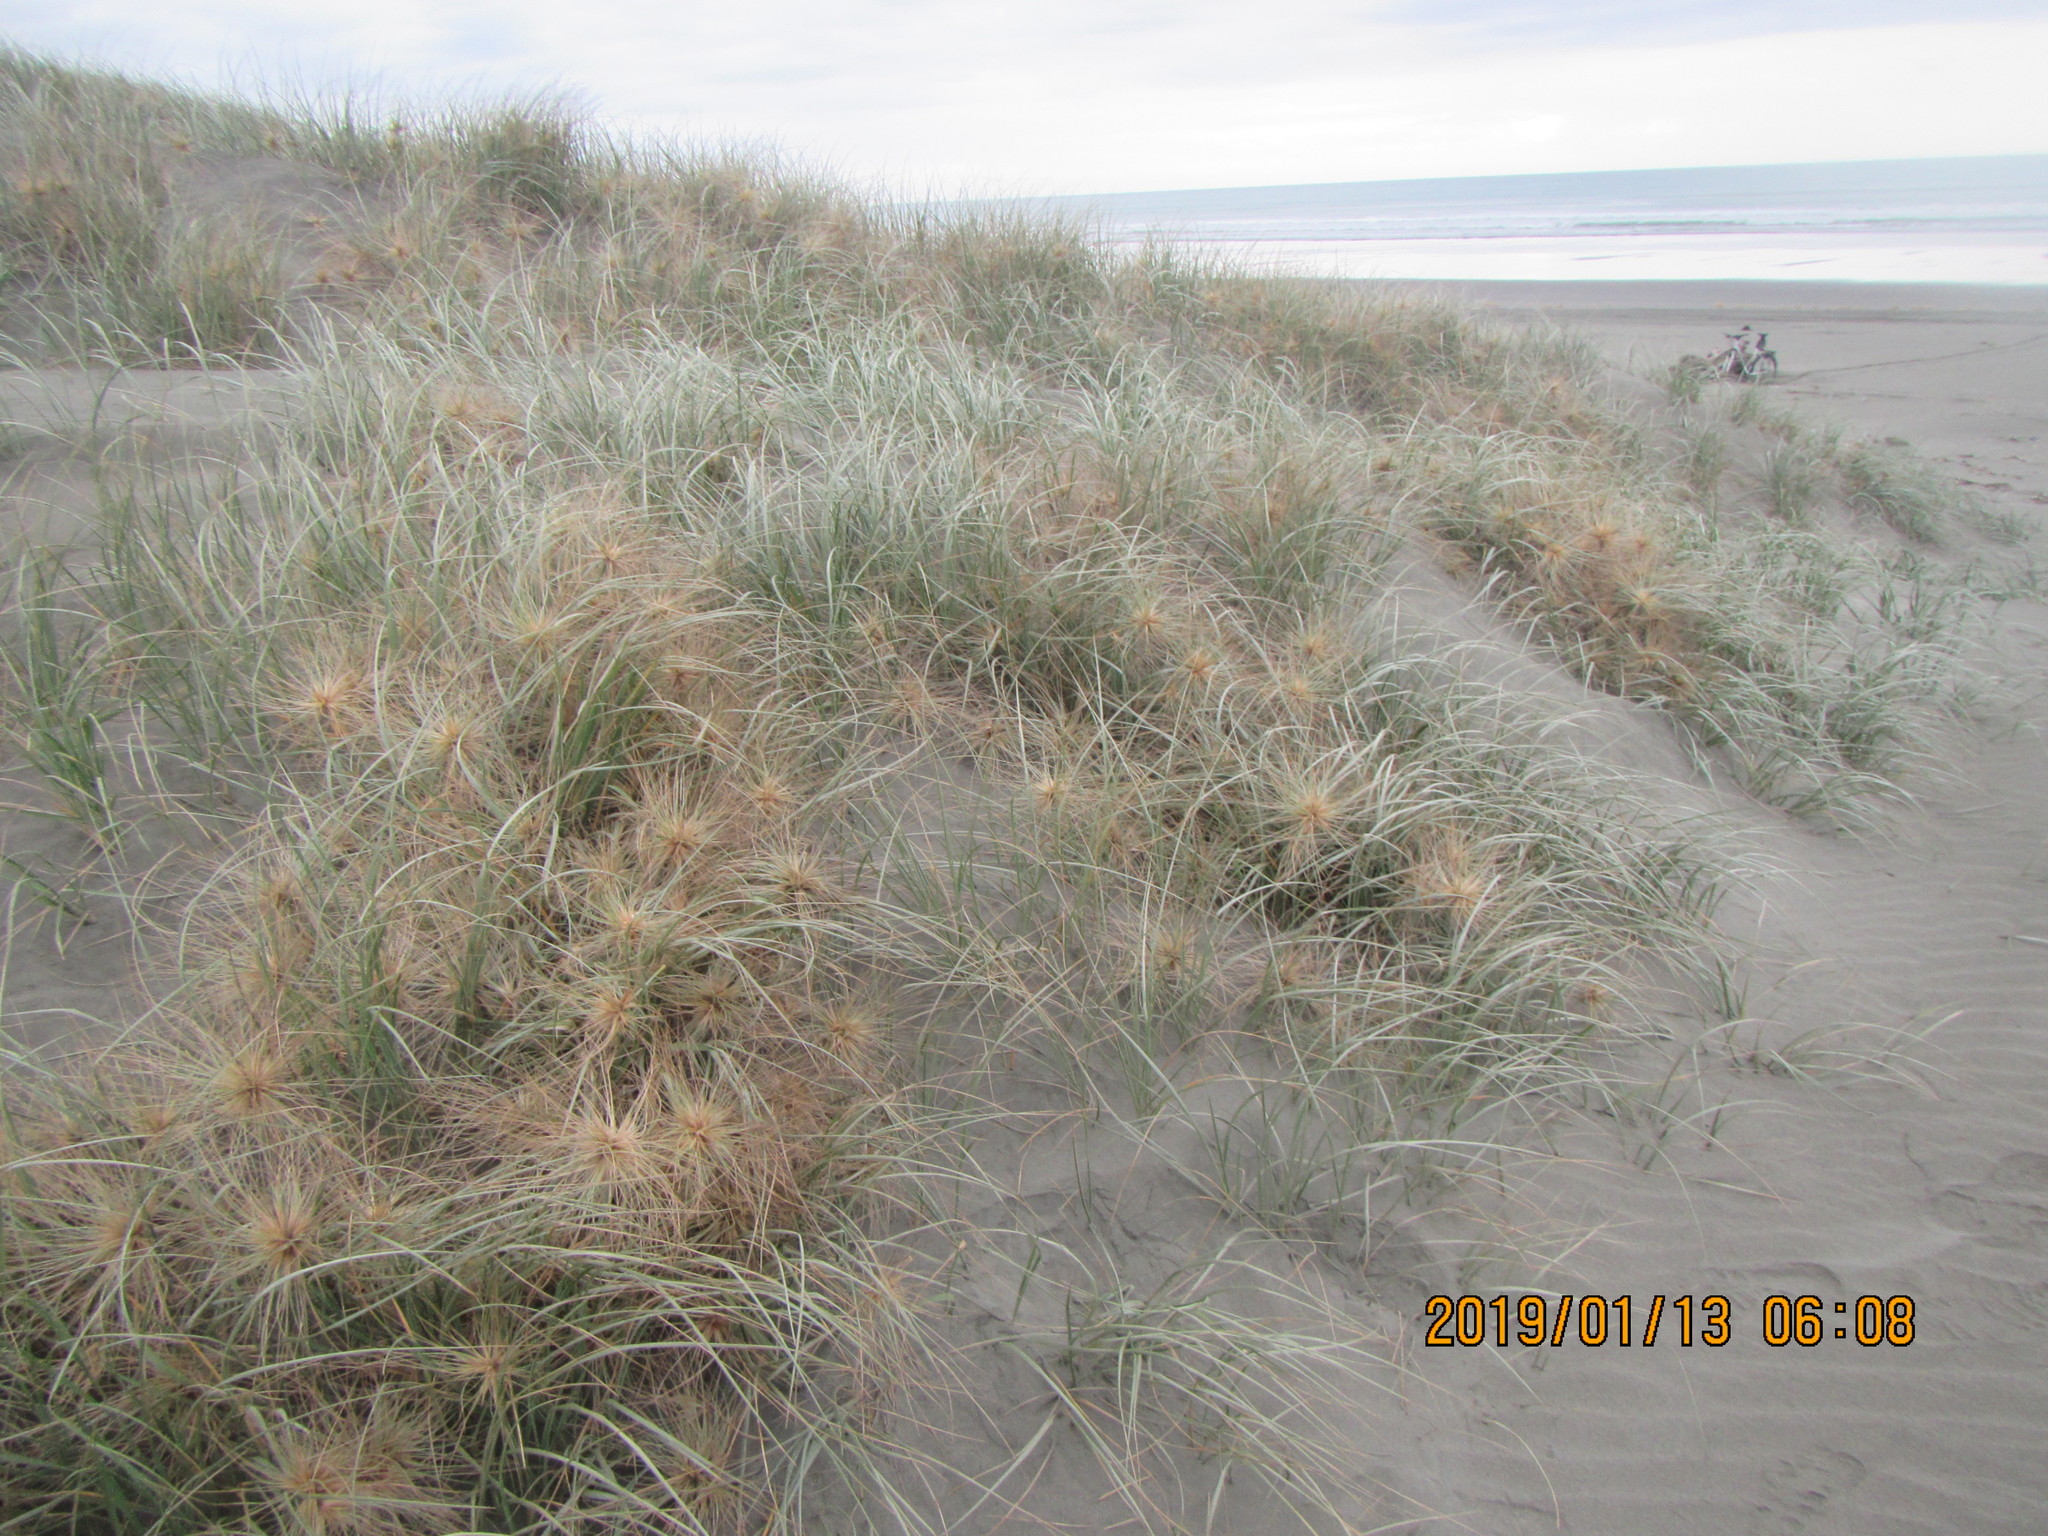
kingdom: Plantae
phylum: Tracheophyta
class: Liliopsida
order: Poales
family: Poaceae
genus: Spinifex
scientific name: Spinifex sericeus
